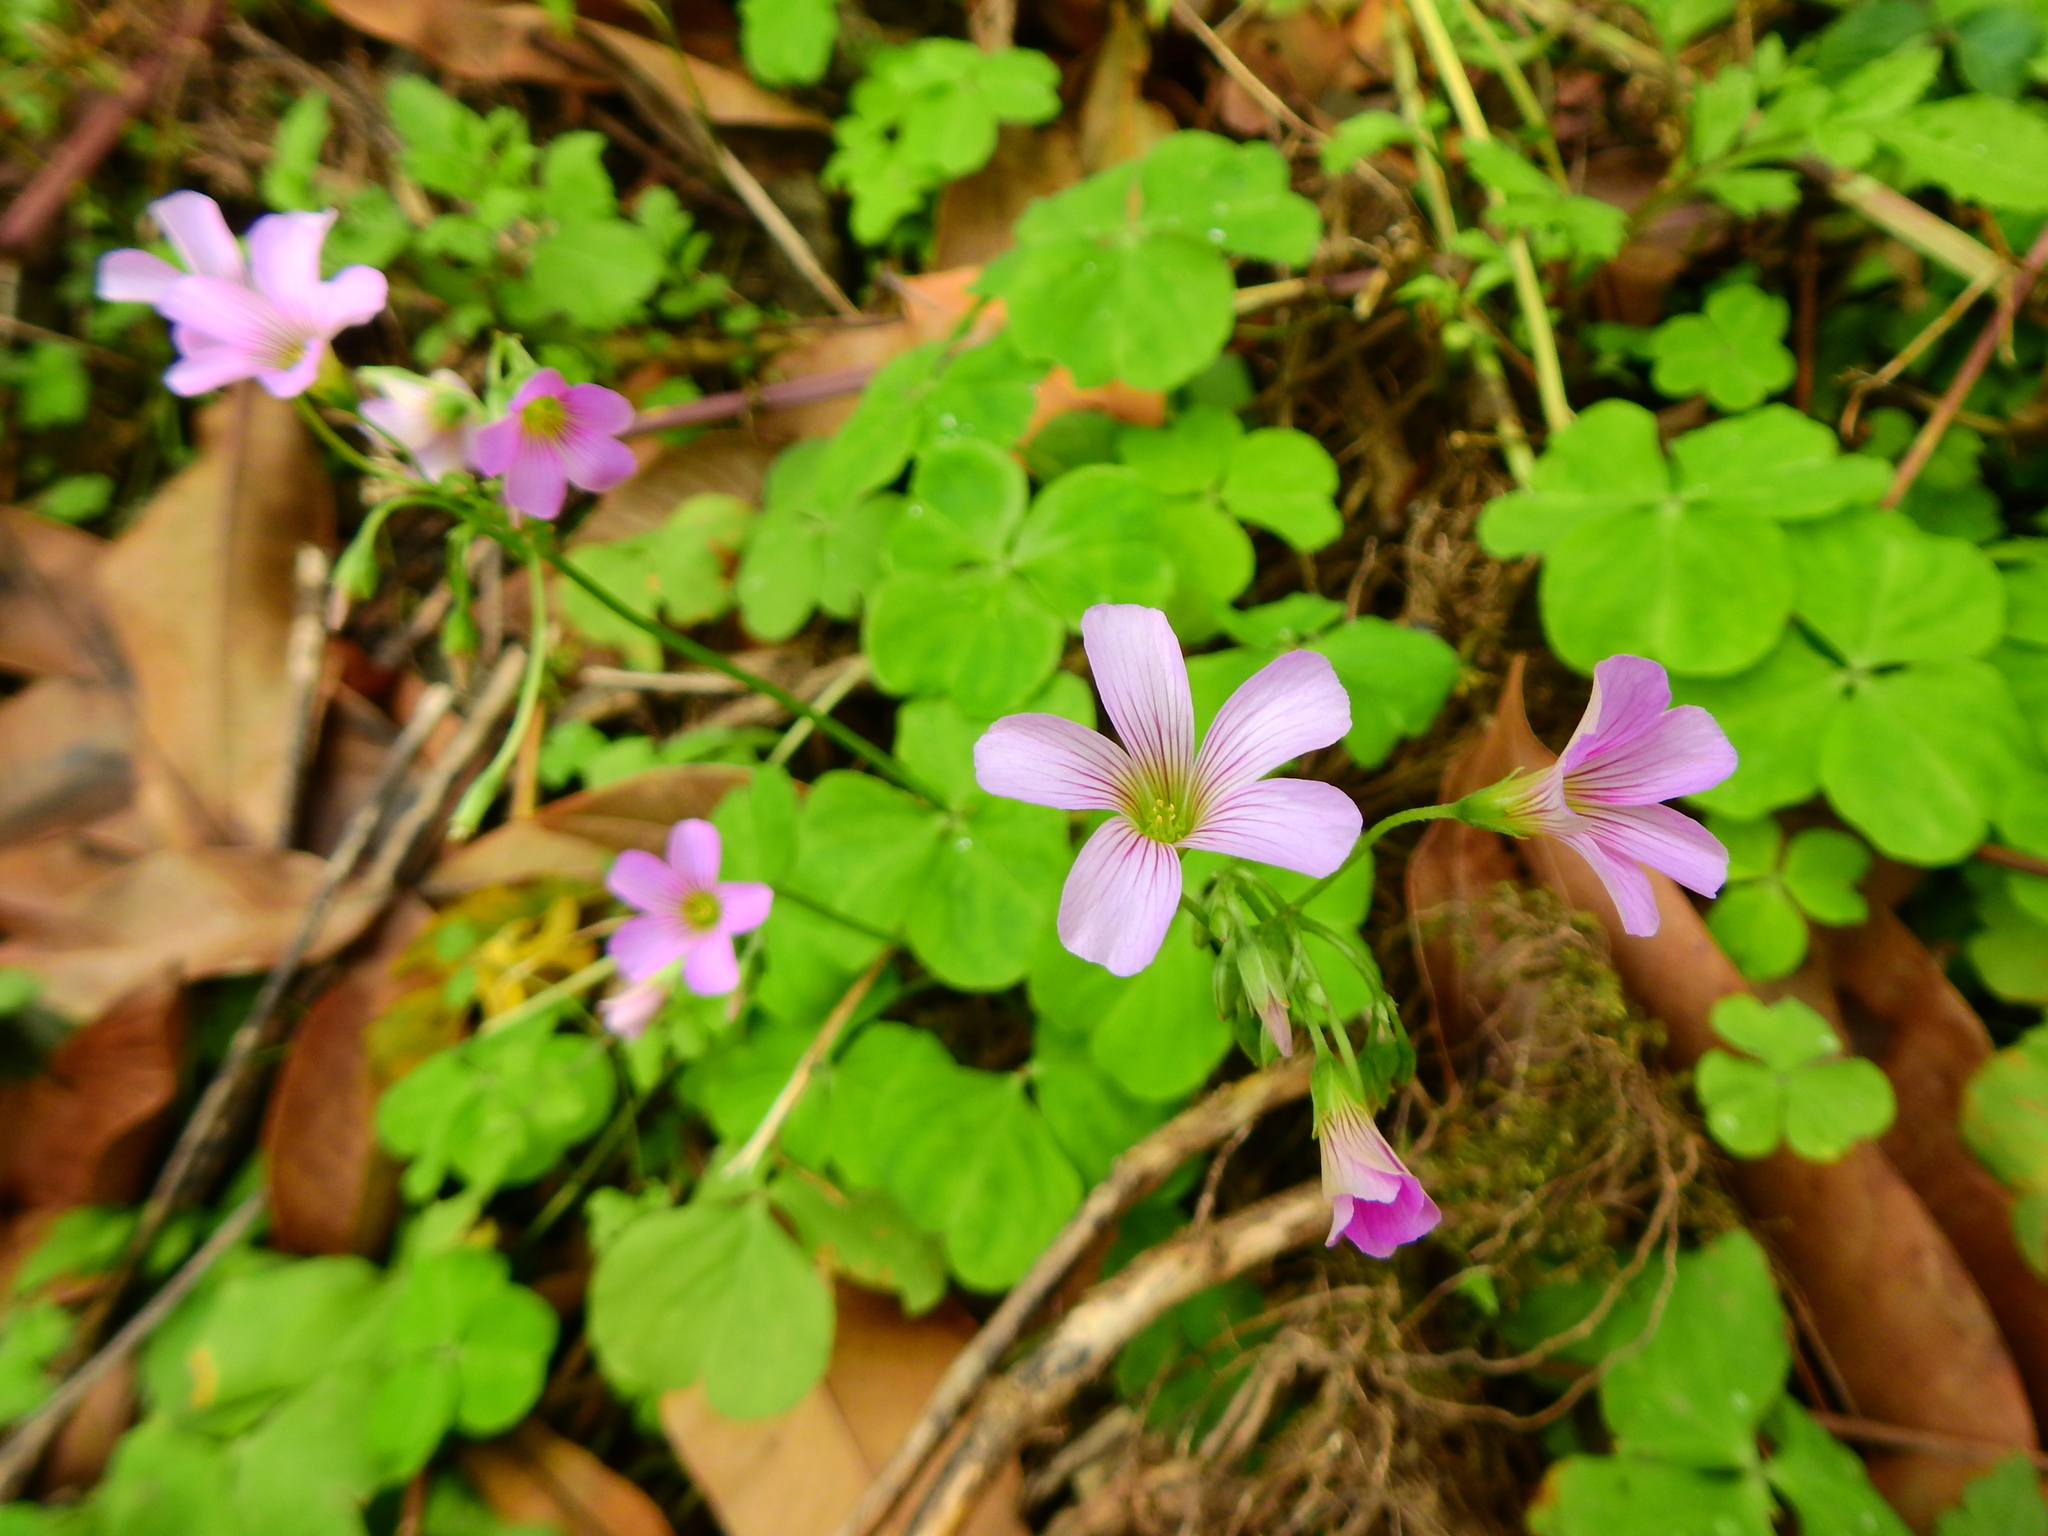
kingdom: Plantae
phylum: Tracheophyta
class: Magnoliopsida
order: Oxalidales
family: Oxalidaceae
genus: Oxalis
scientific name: Oxalis debilis
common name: Large-flowered pink-sorrel
